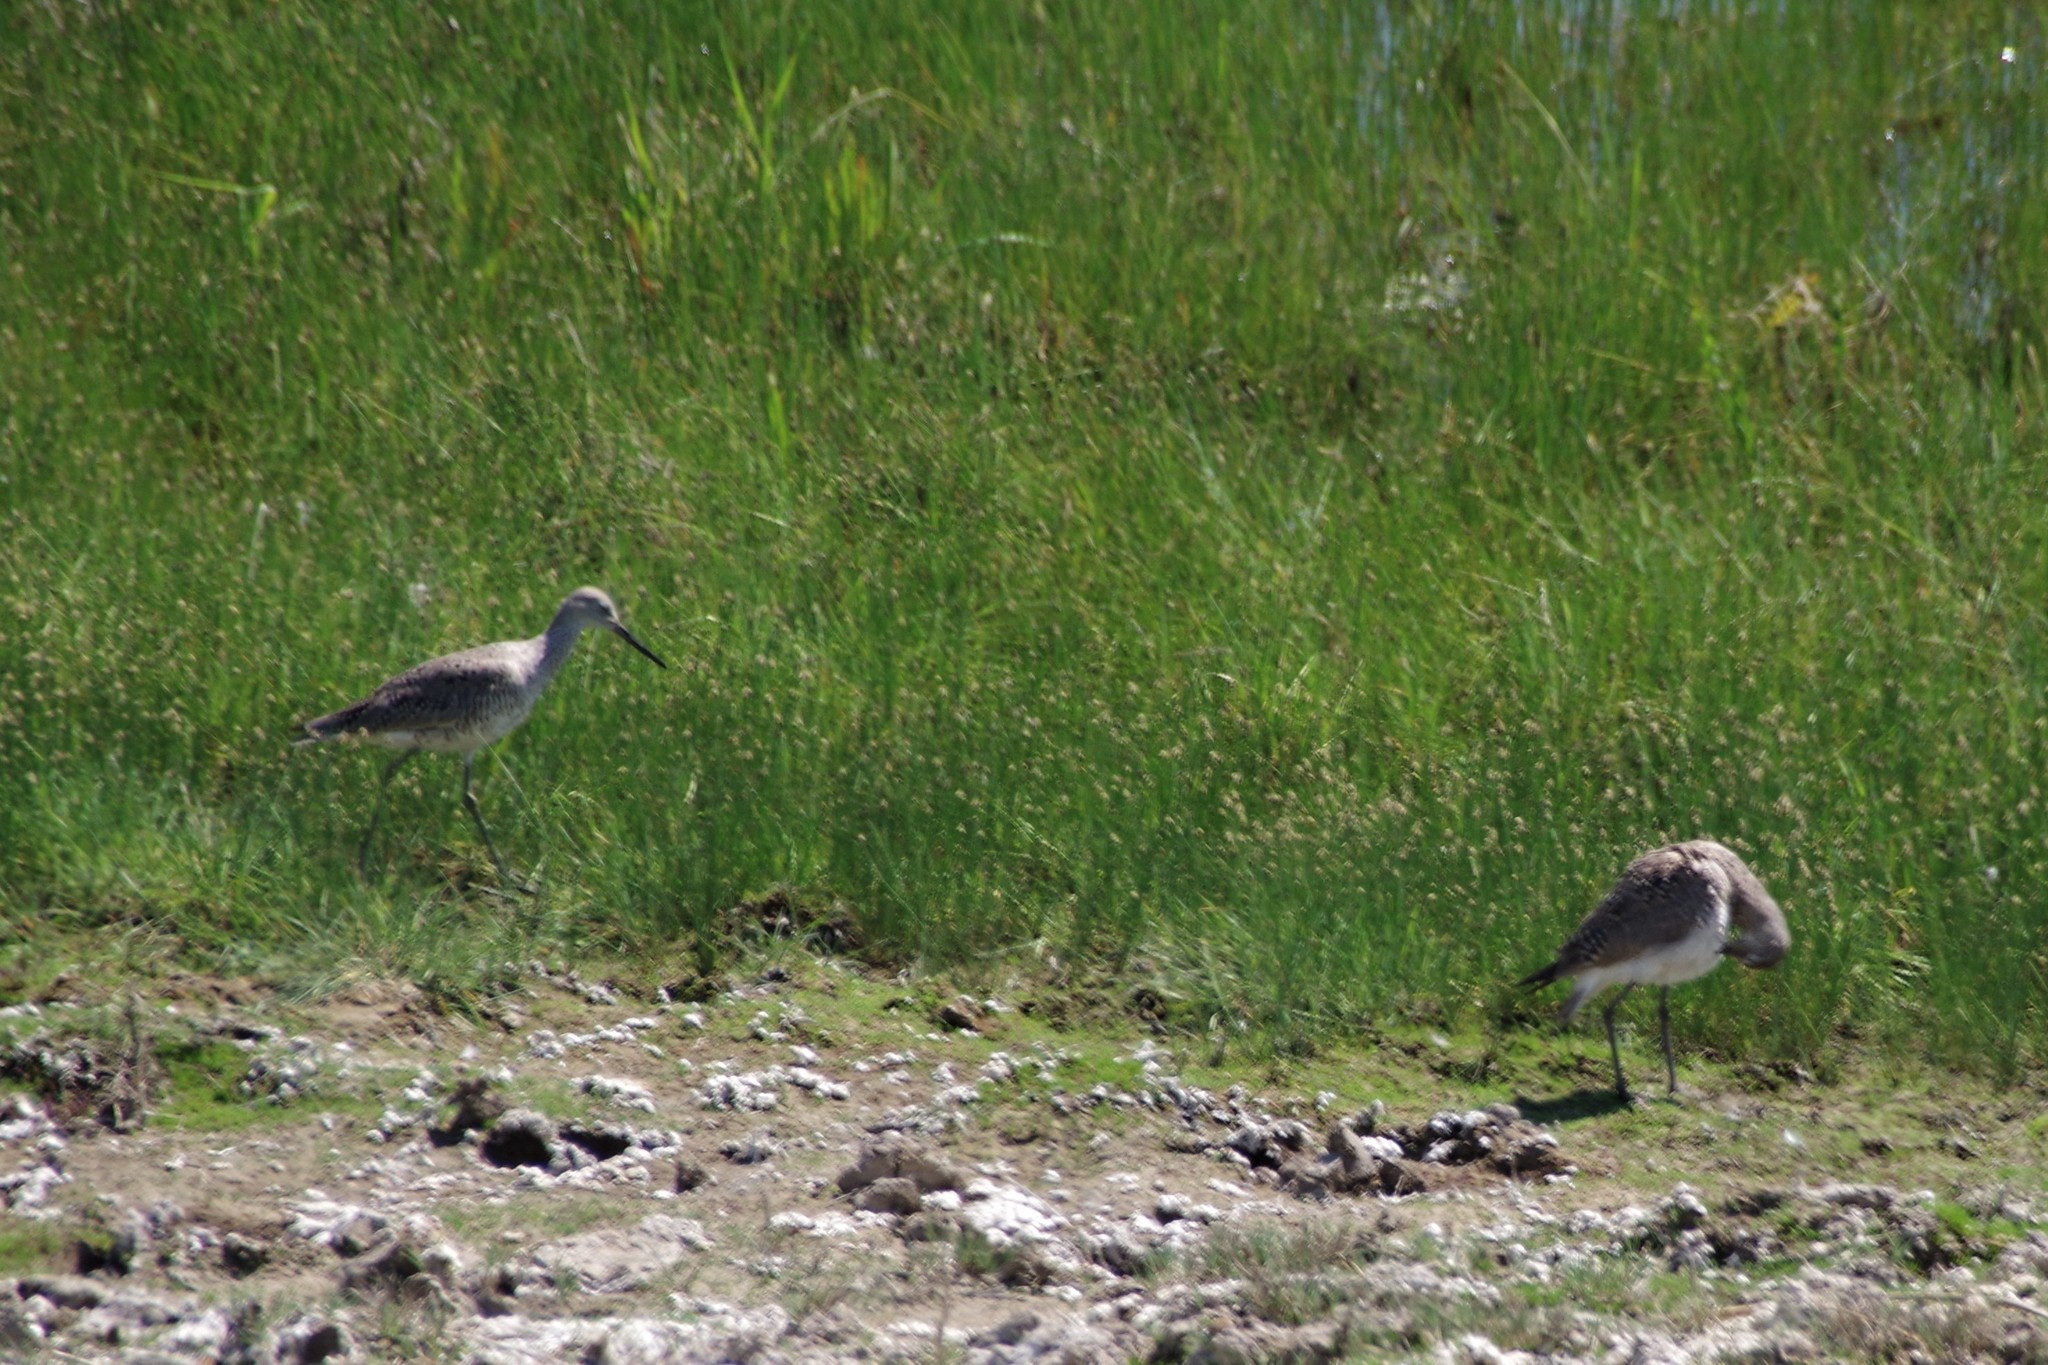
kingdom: Animalia
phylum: Chordata
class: Aves
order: Charadriiformes
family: Scolopacidae
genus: Tringa
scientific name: Tringa semipalmata
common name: Willet
